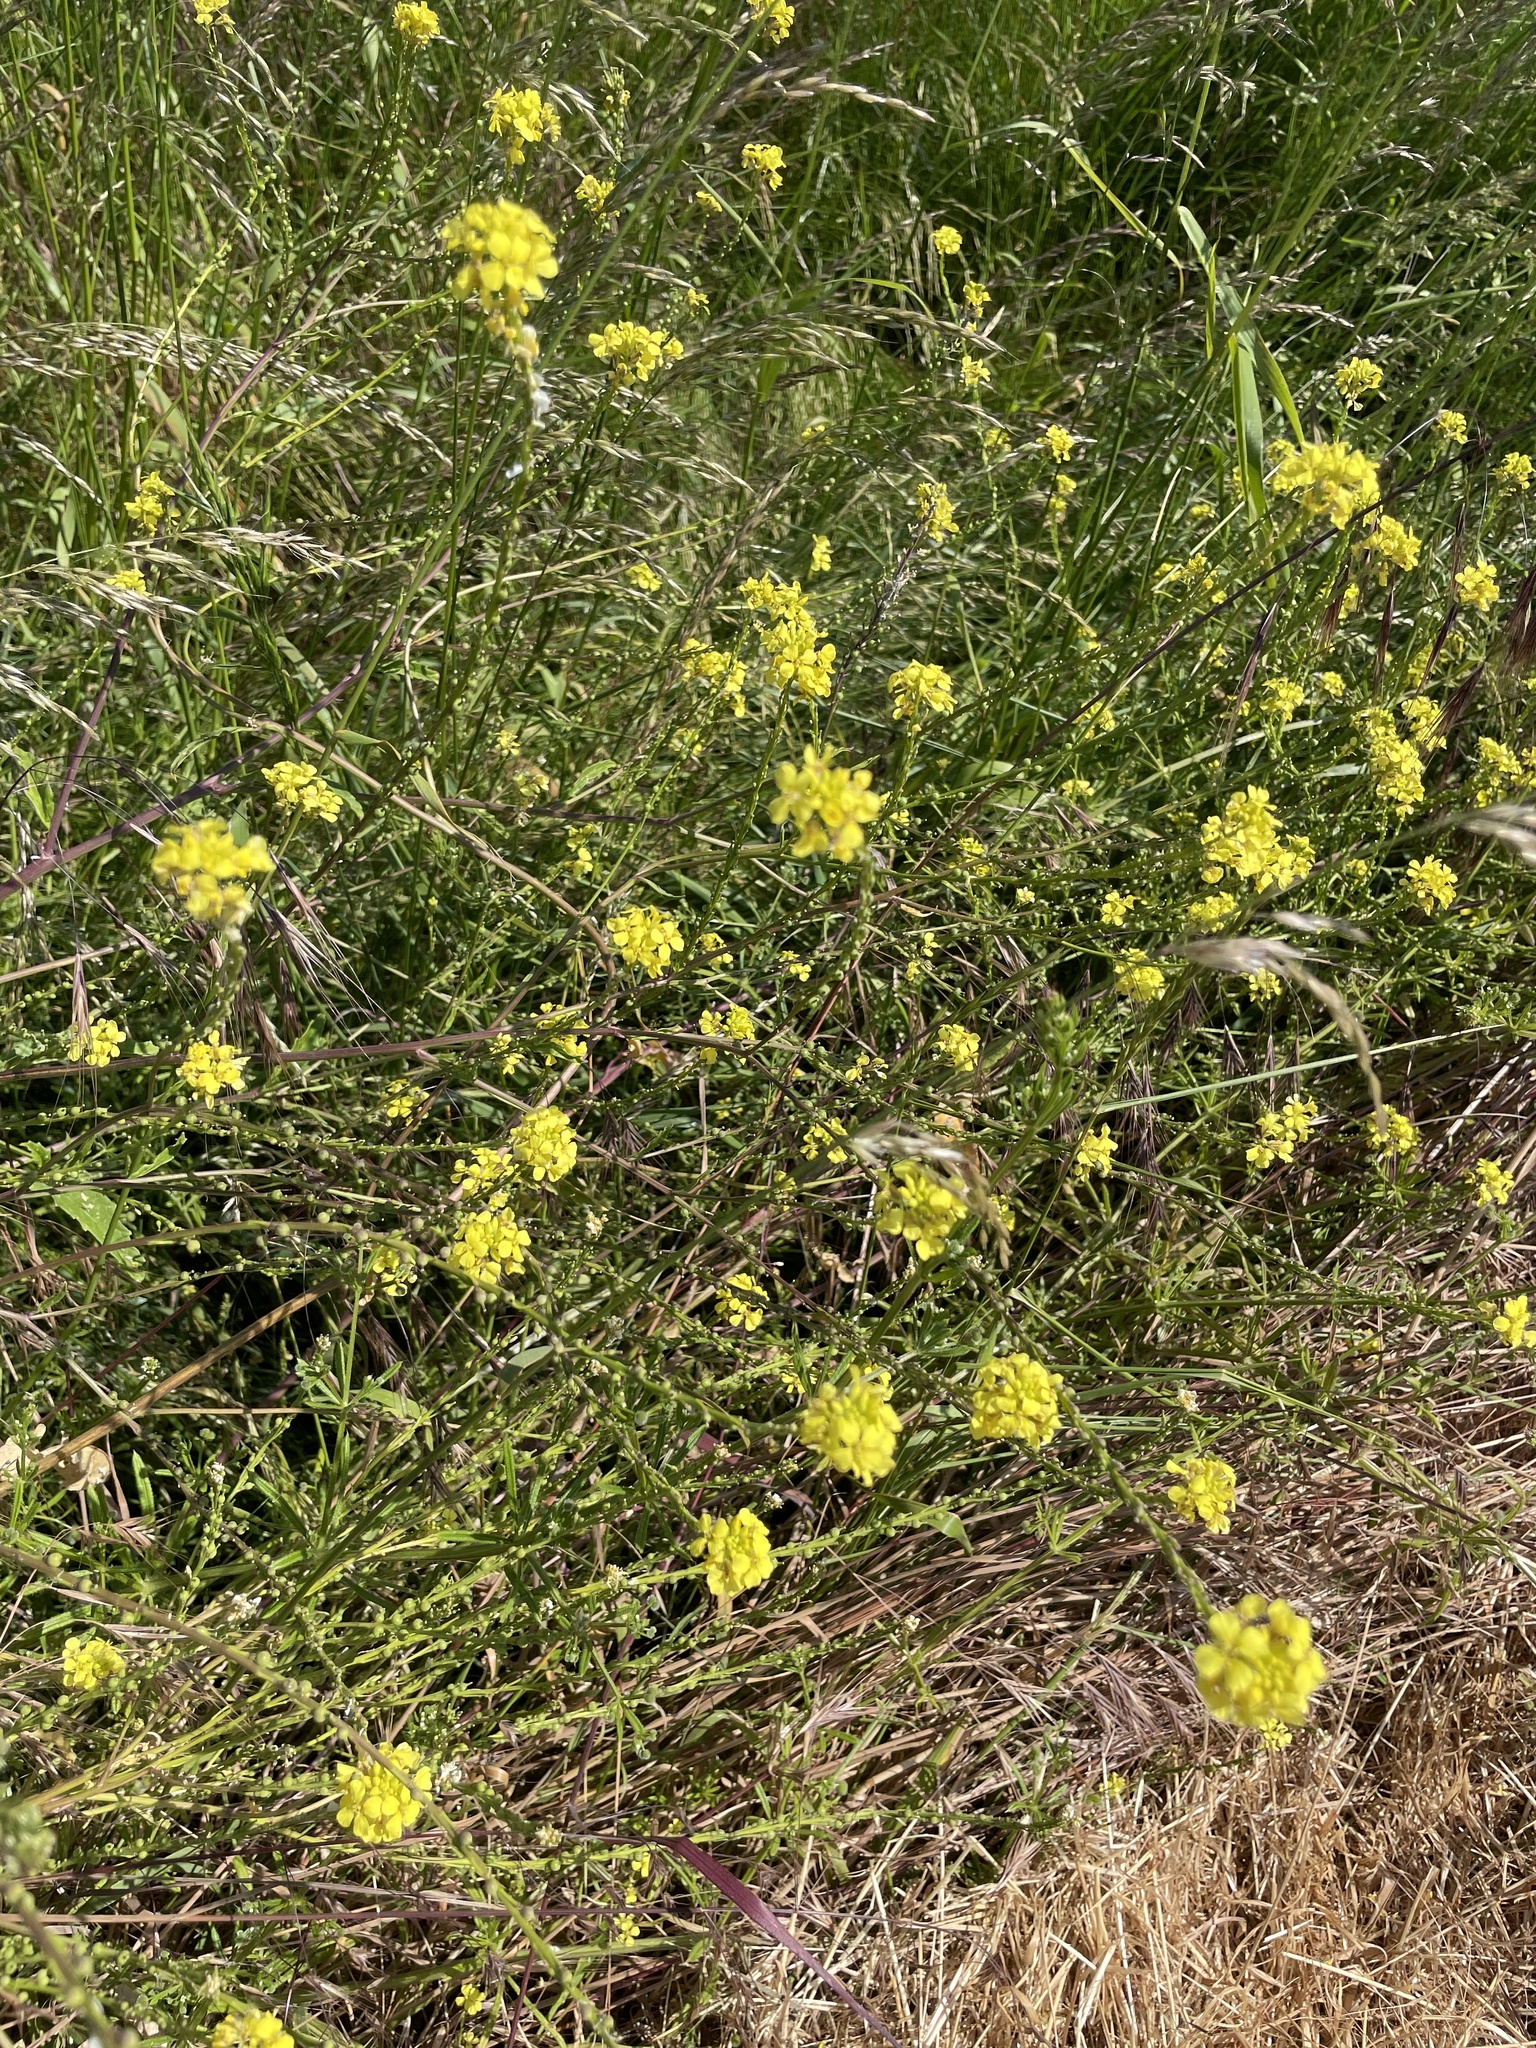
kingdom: Plantae
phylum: Tracheophyta
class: Magnoliopsida
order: Brassicales
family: Brassicaceae
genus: Rapistrum
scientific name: Rapistrum rugosum
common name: Annual bastardcabbage
